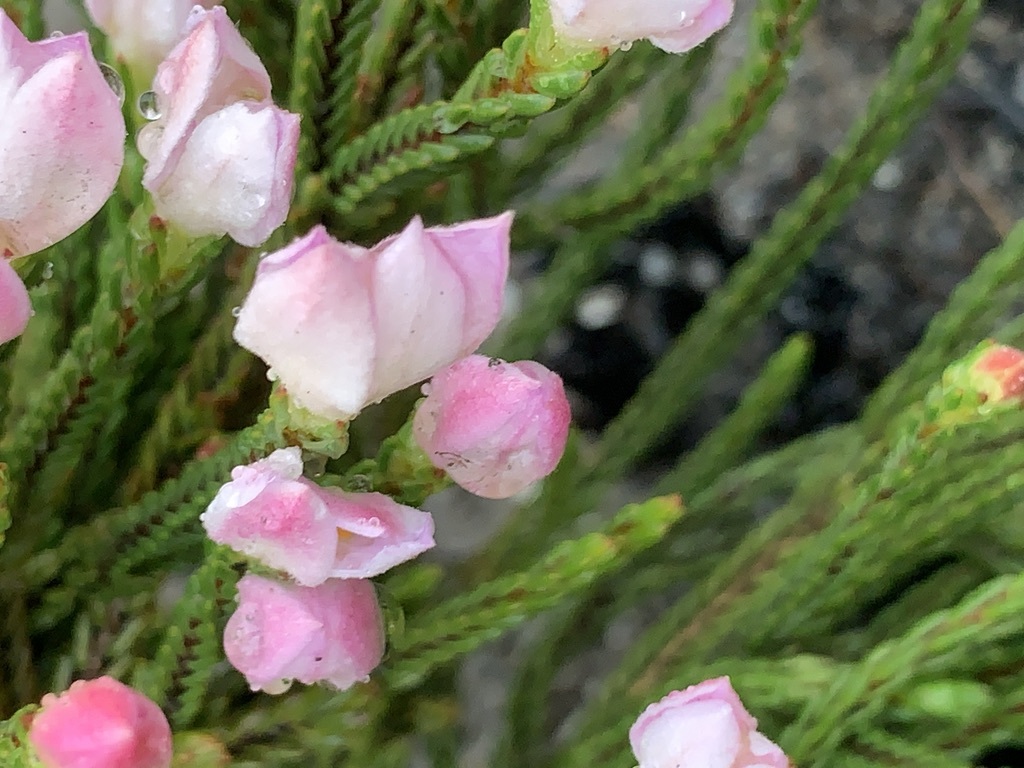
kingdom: Plantae
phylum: Tracheophyta
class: Magnoliopsida
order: Malvales
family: Thymelaeaceae
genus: Lachnaea
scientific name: Lachnaea grandiflora
